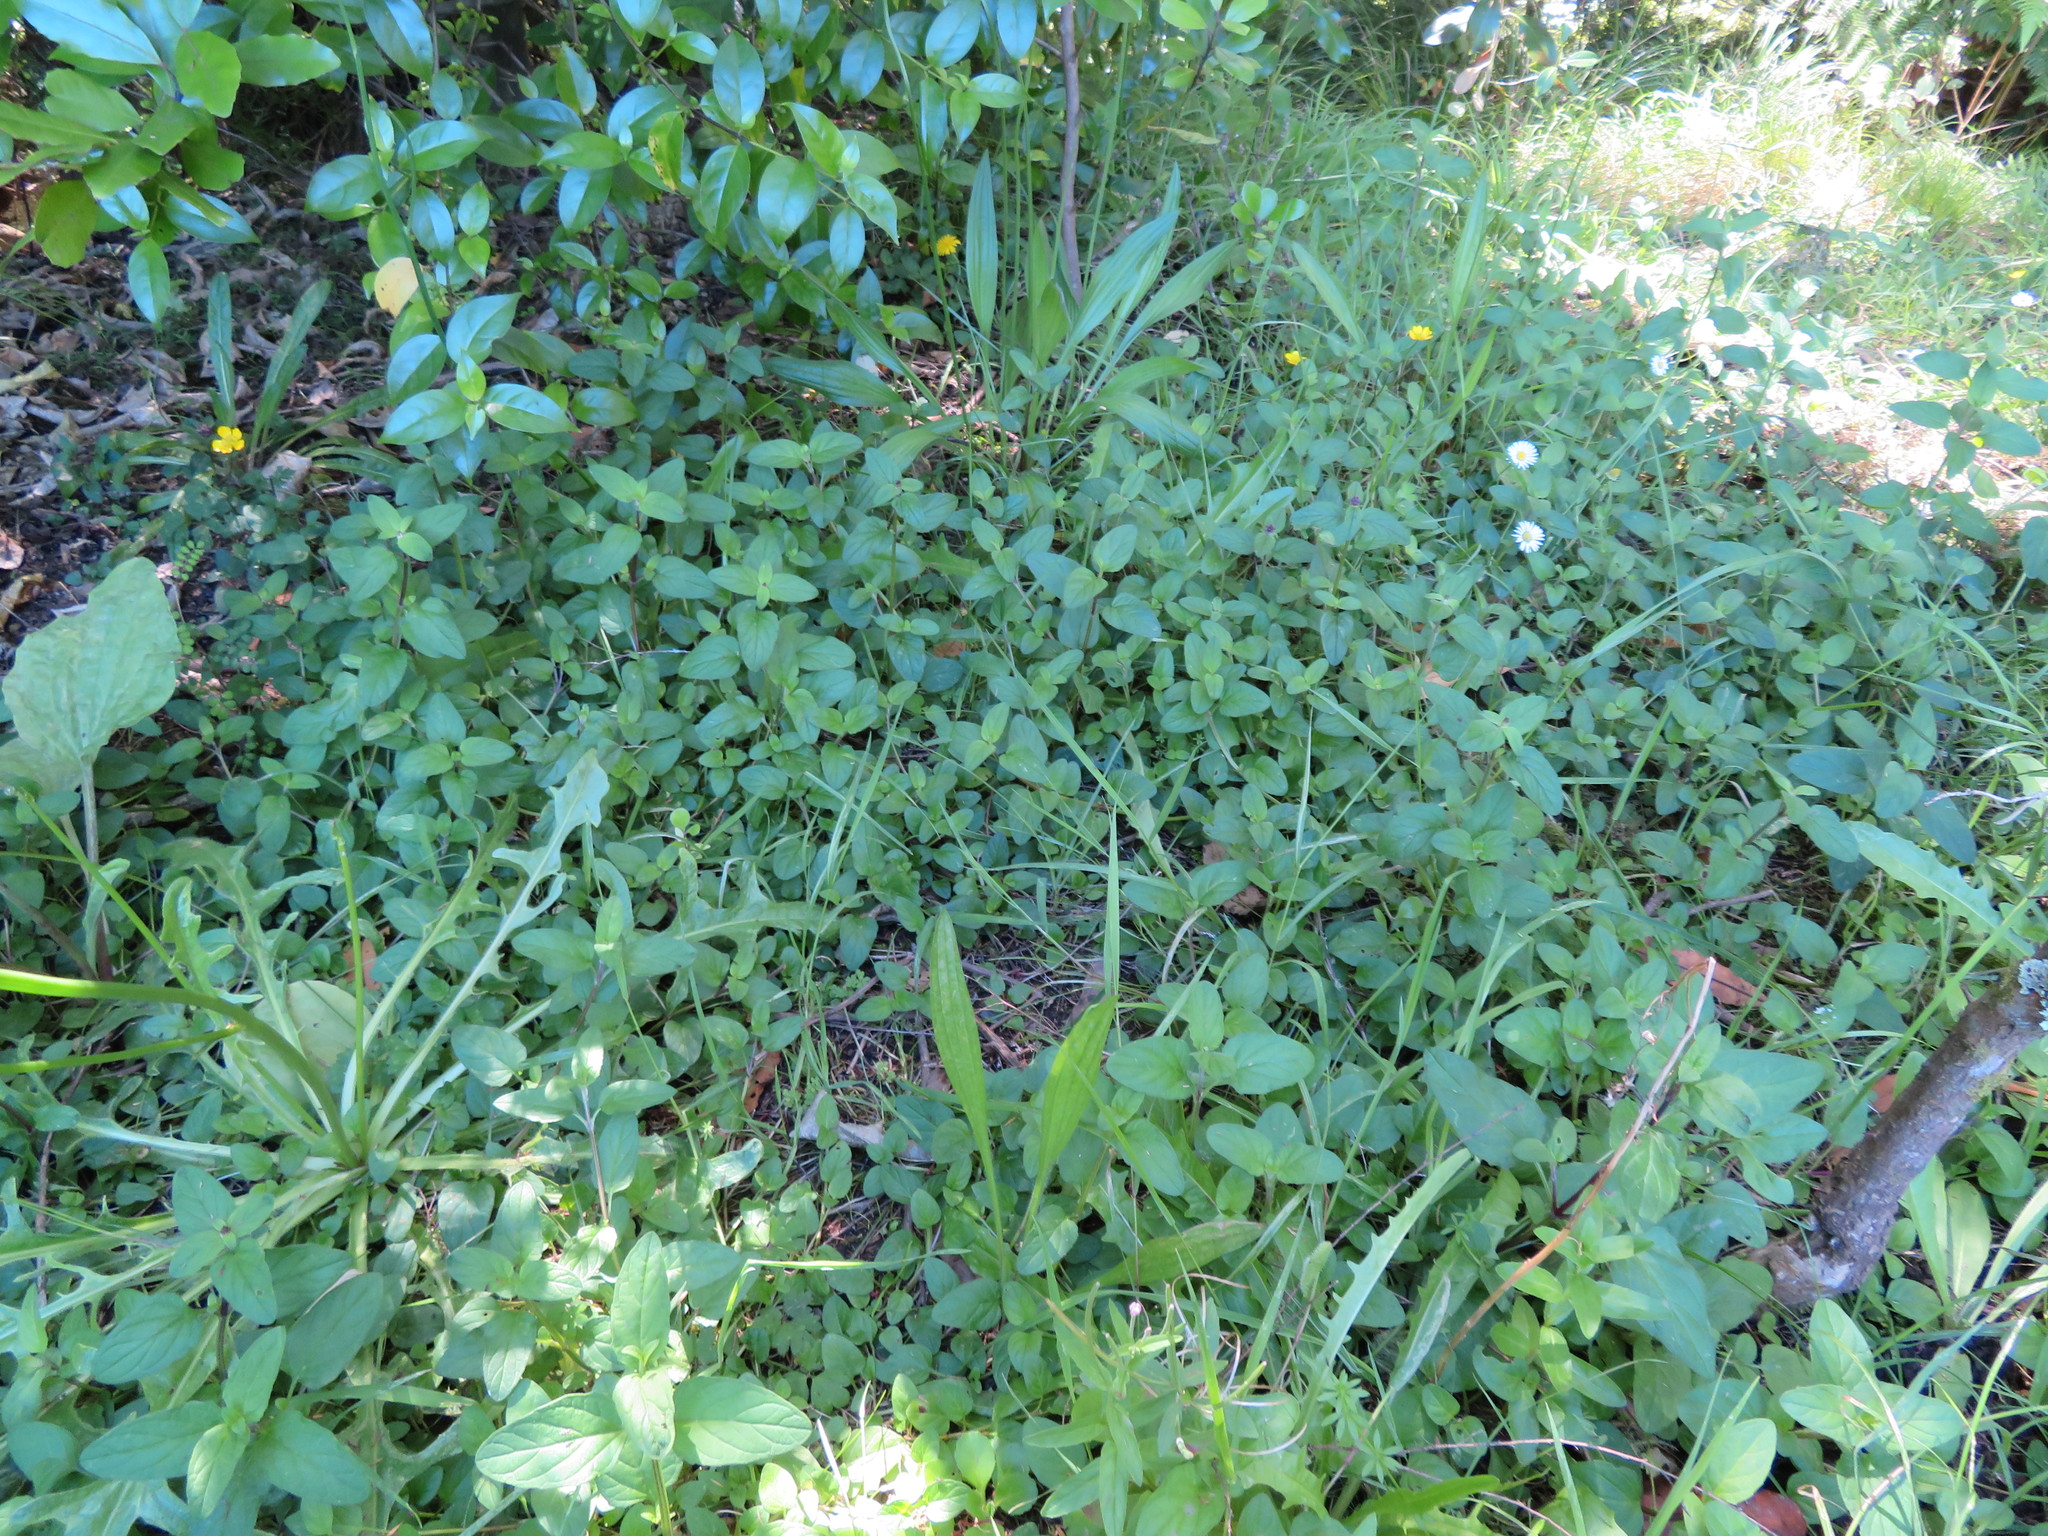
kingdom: Plantae
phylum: Tracheophyta
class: Magnoliopsida
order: Lamiales
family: Lamiaceae
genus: Prunella
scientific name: Prunella vulgaris
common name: Heal-all
